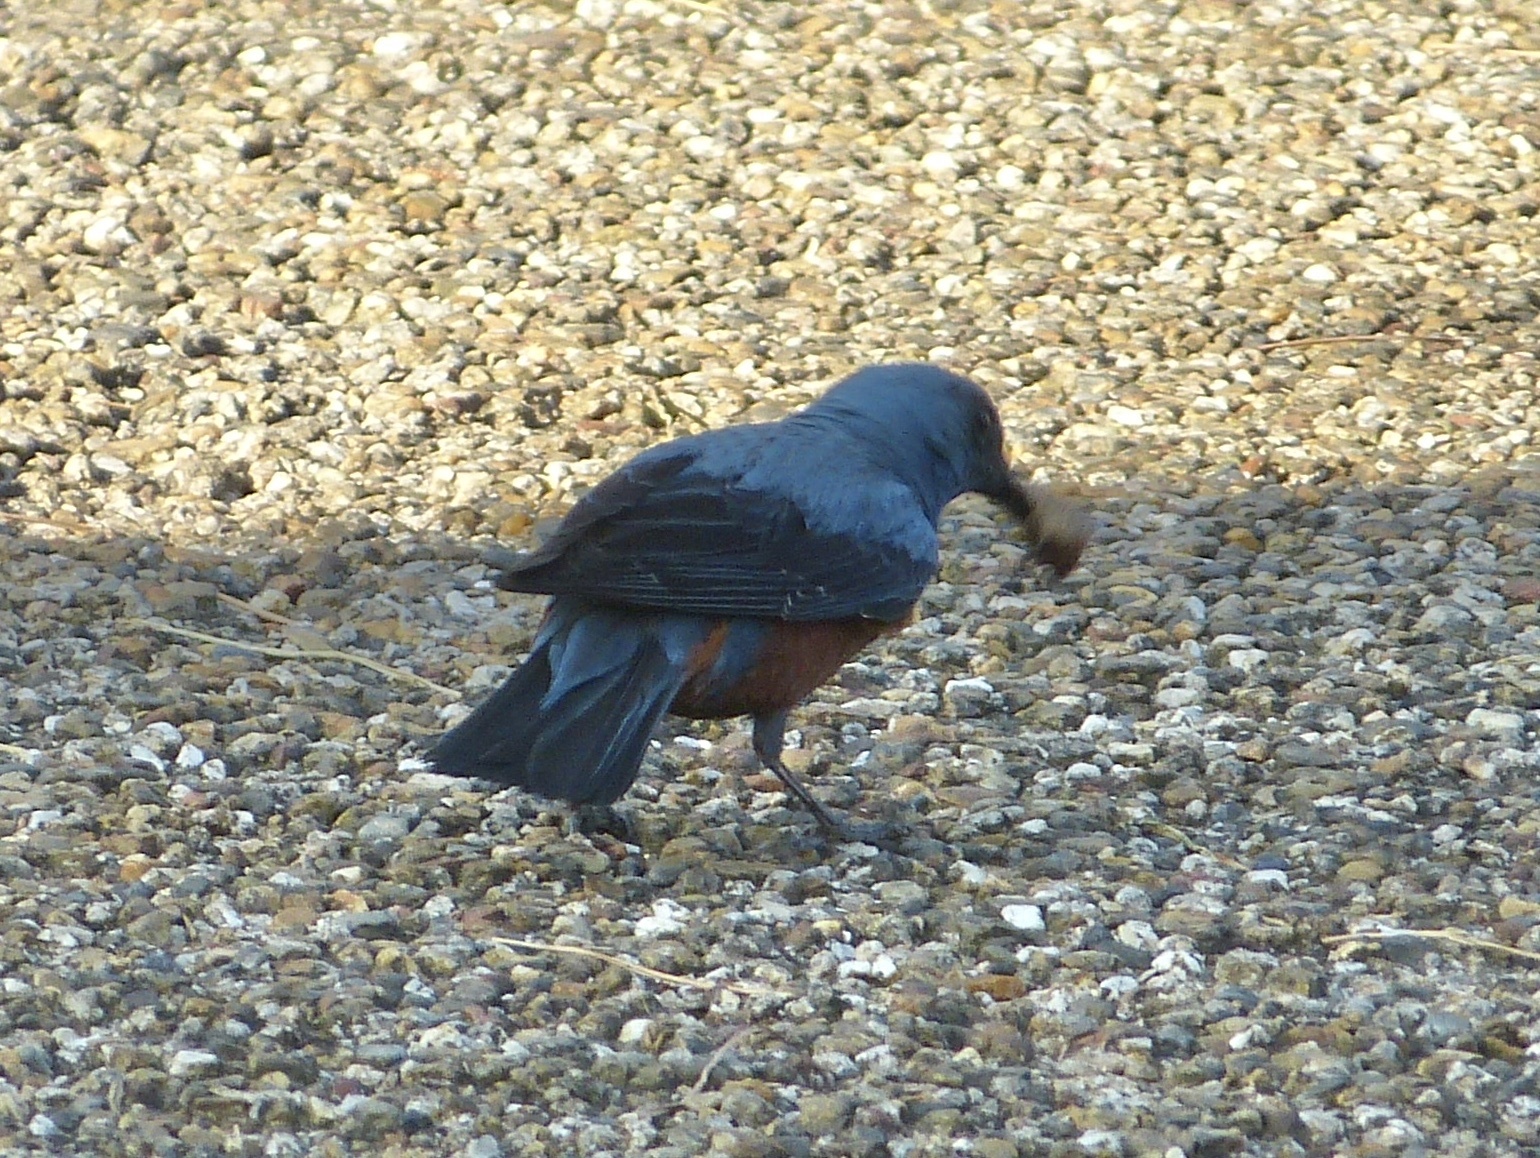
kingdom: Animalia
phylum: Chordata
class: Aves
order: Passeriformes
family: Muscicapidae
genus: Monticola
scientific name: Monticola solitarius
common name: Blue rock thrush
